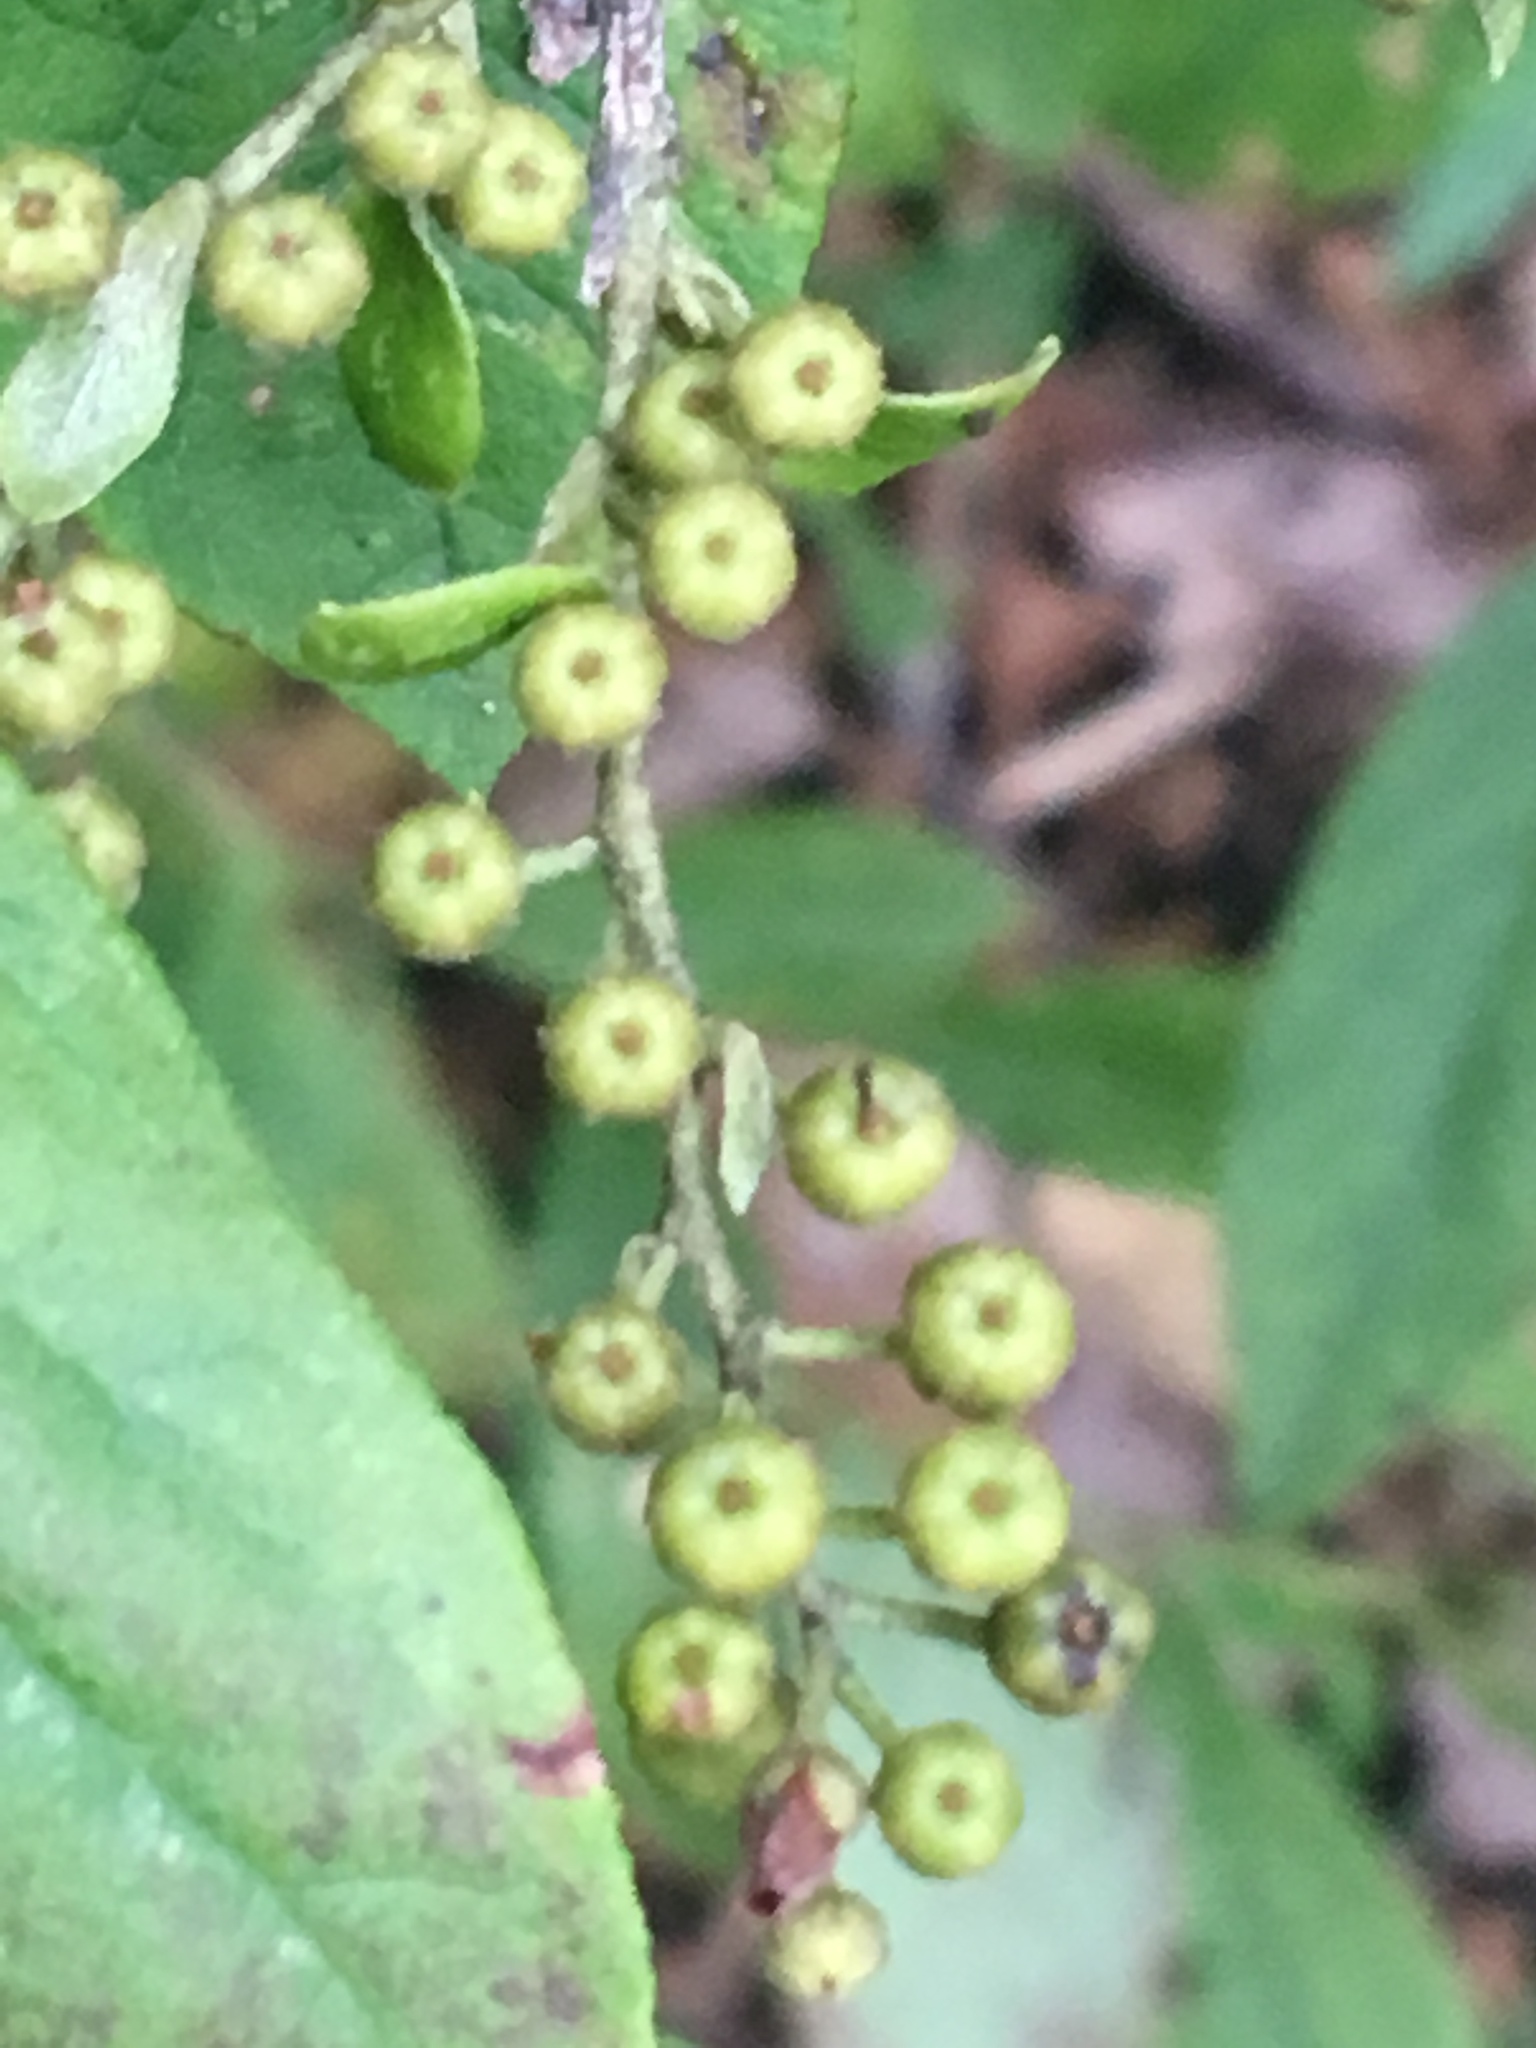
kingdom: Plantae
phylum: Tracheophyta
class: Magnoliopsida
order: Ericales
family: Ericaceae
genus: Lyonia
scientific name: Lyonia ligustrina
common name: Maleberry
